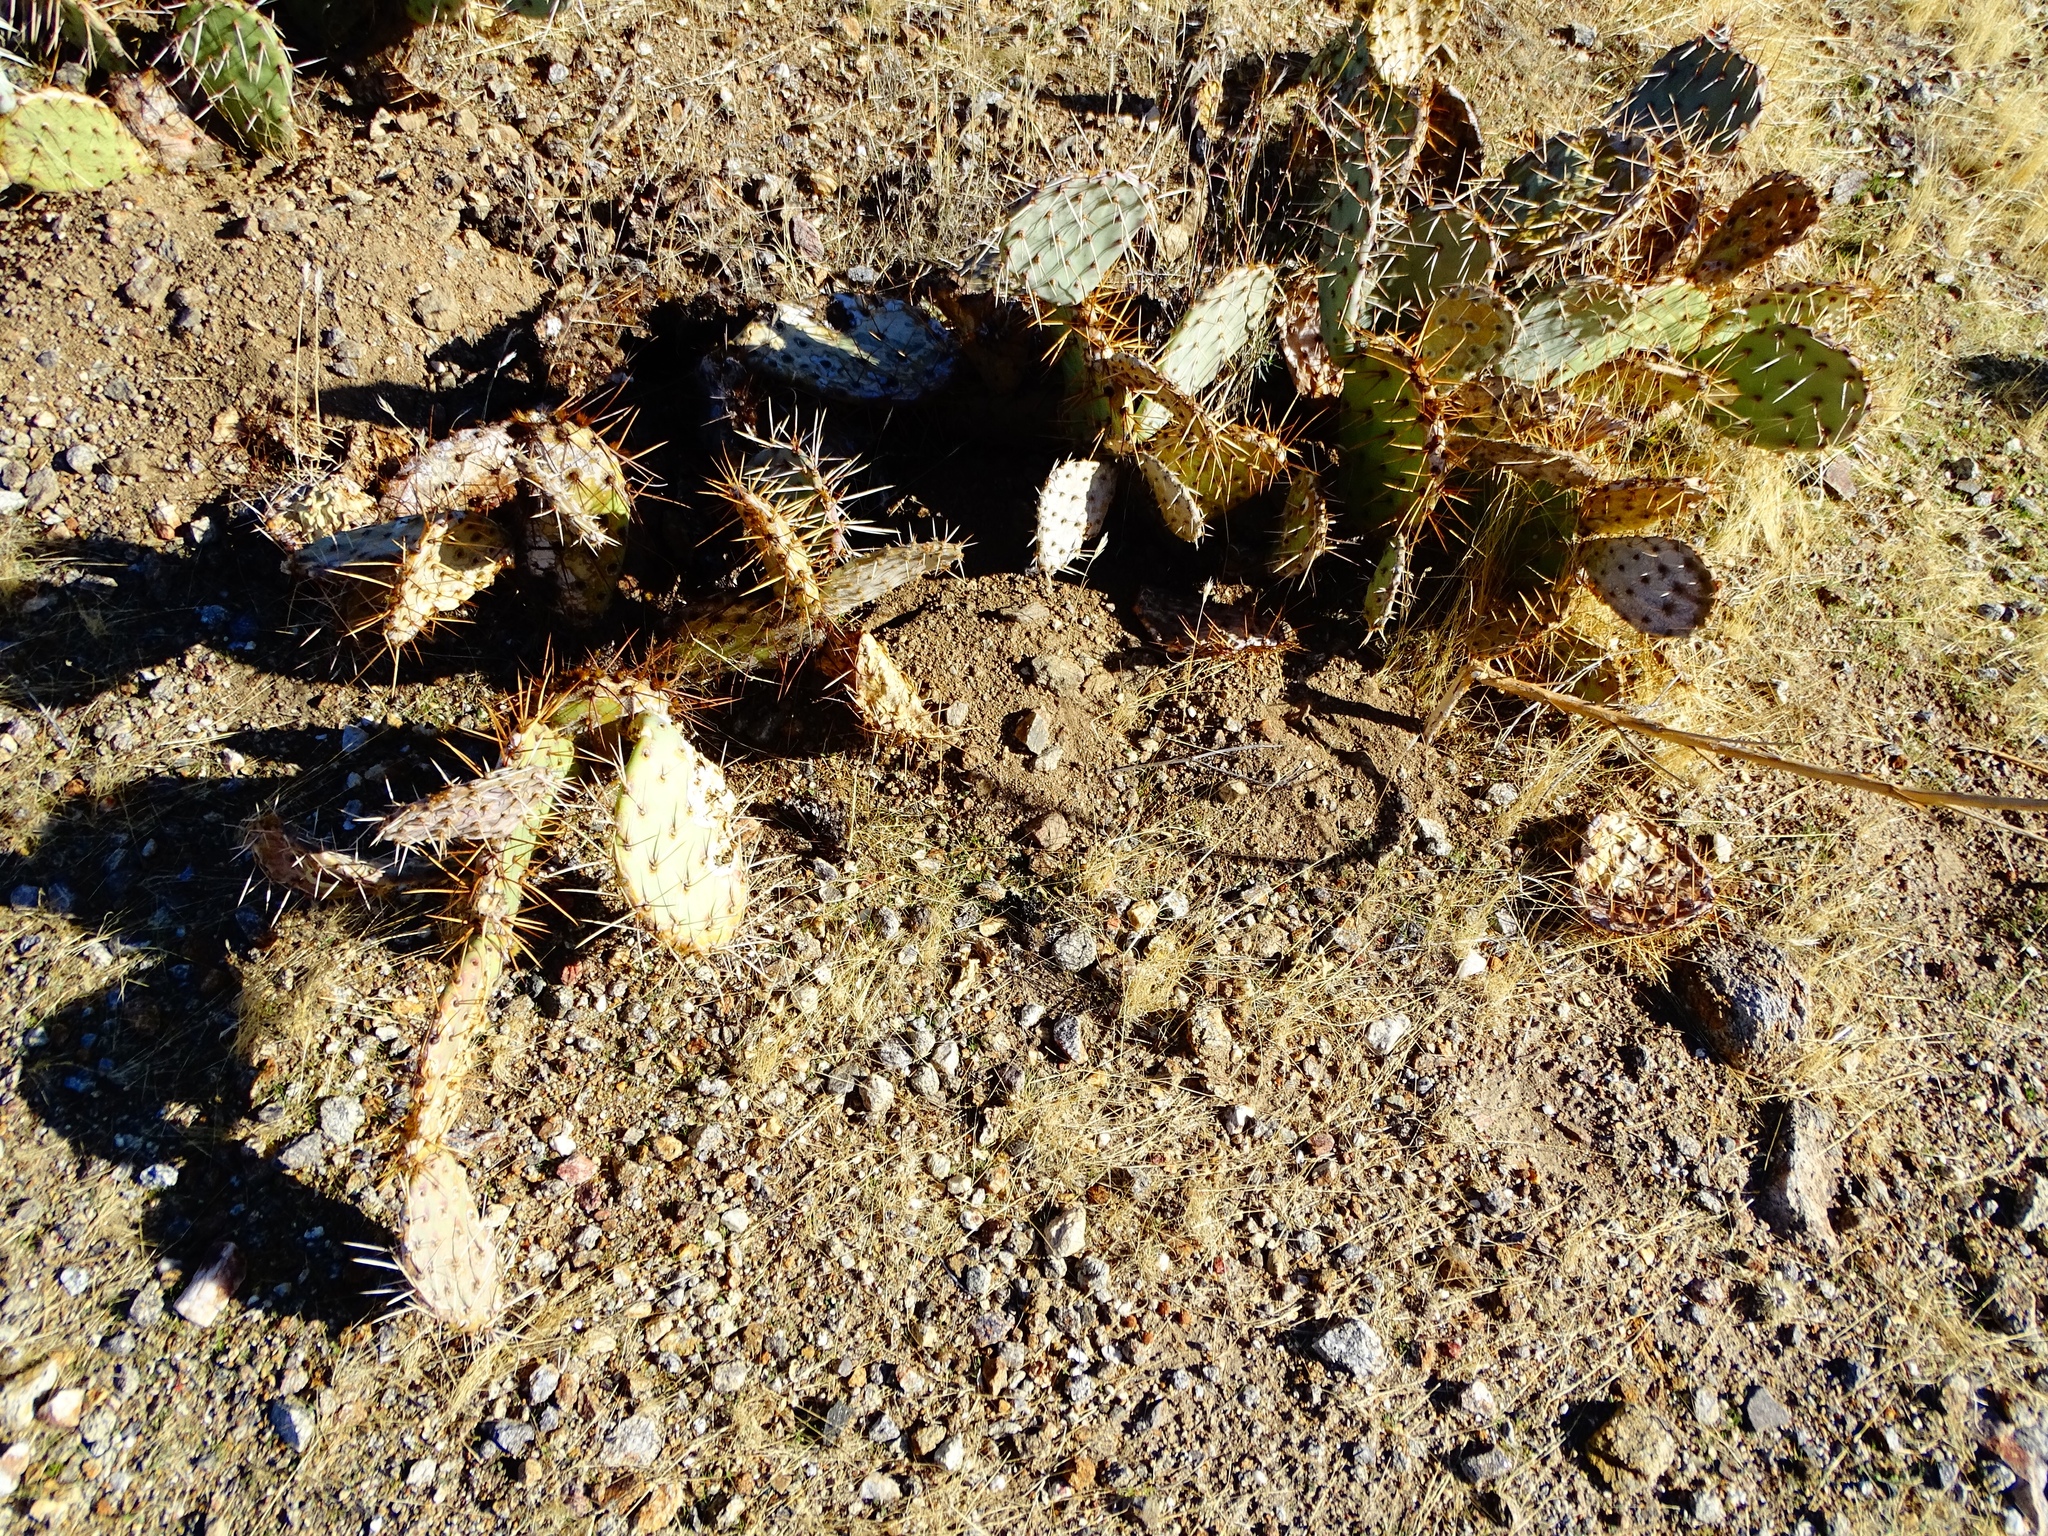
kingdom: Plantae
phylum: Tracheophyta
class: Magnoliopsida
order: Caryophyllales
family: Cactaceae
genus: Opuntia
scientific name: Opuntia phaeacantha
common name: New mexico prickly-pear
